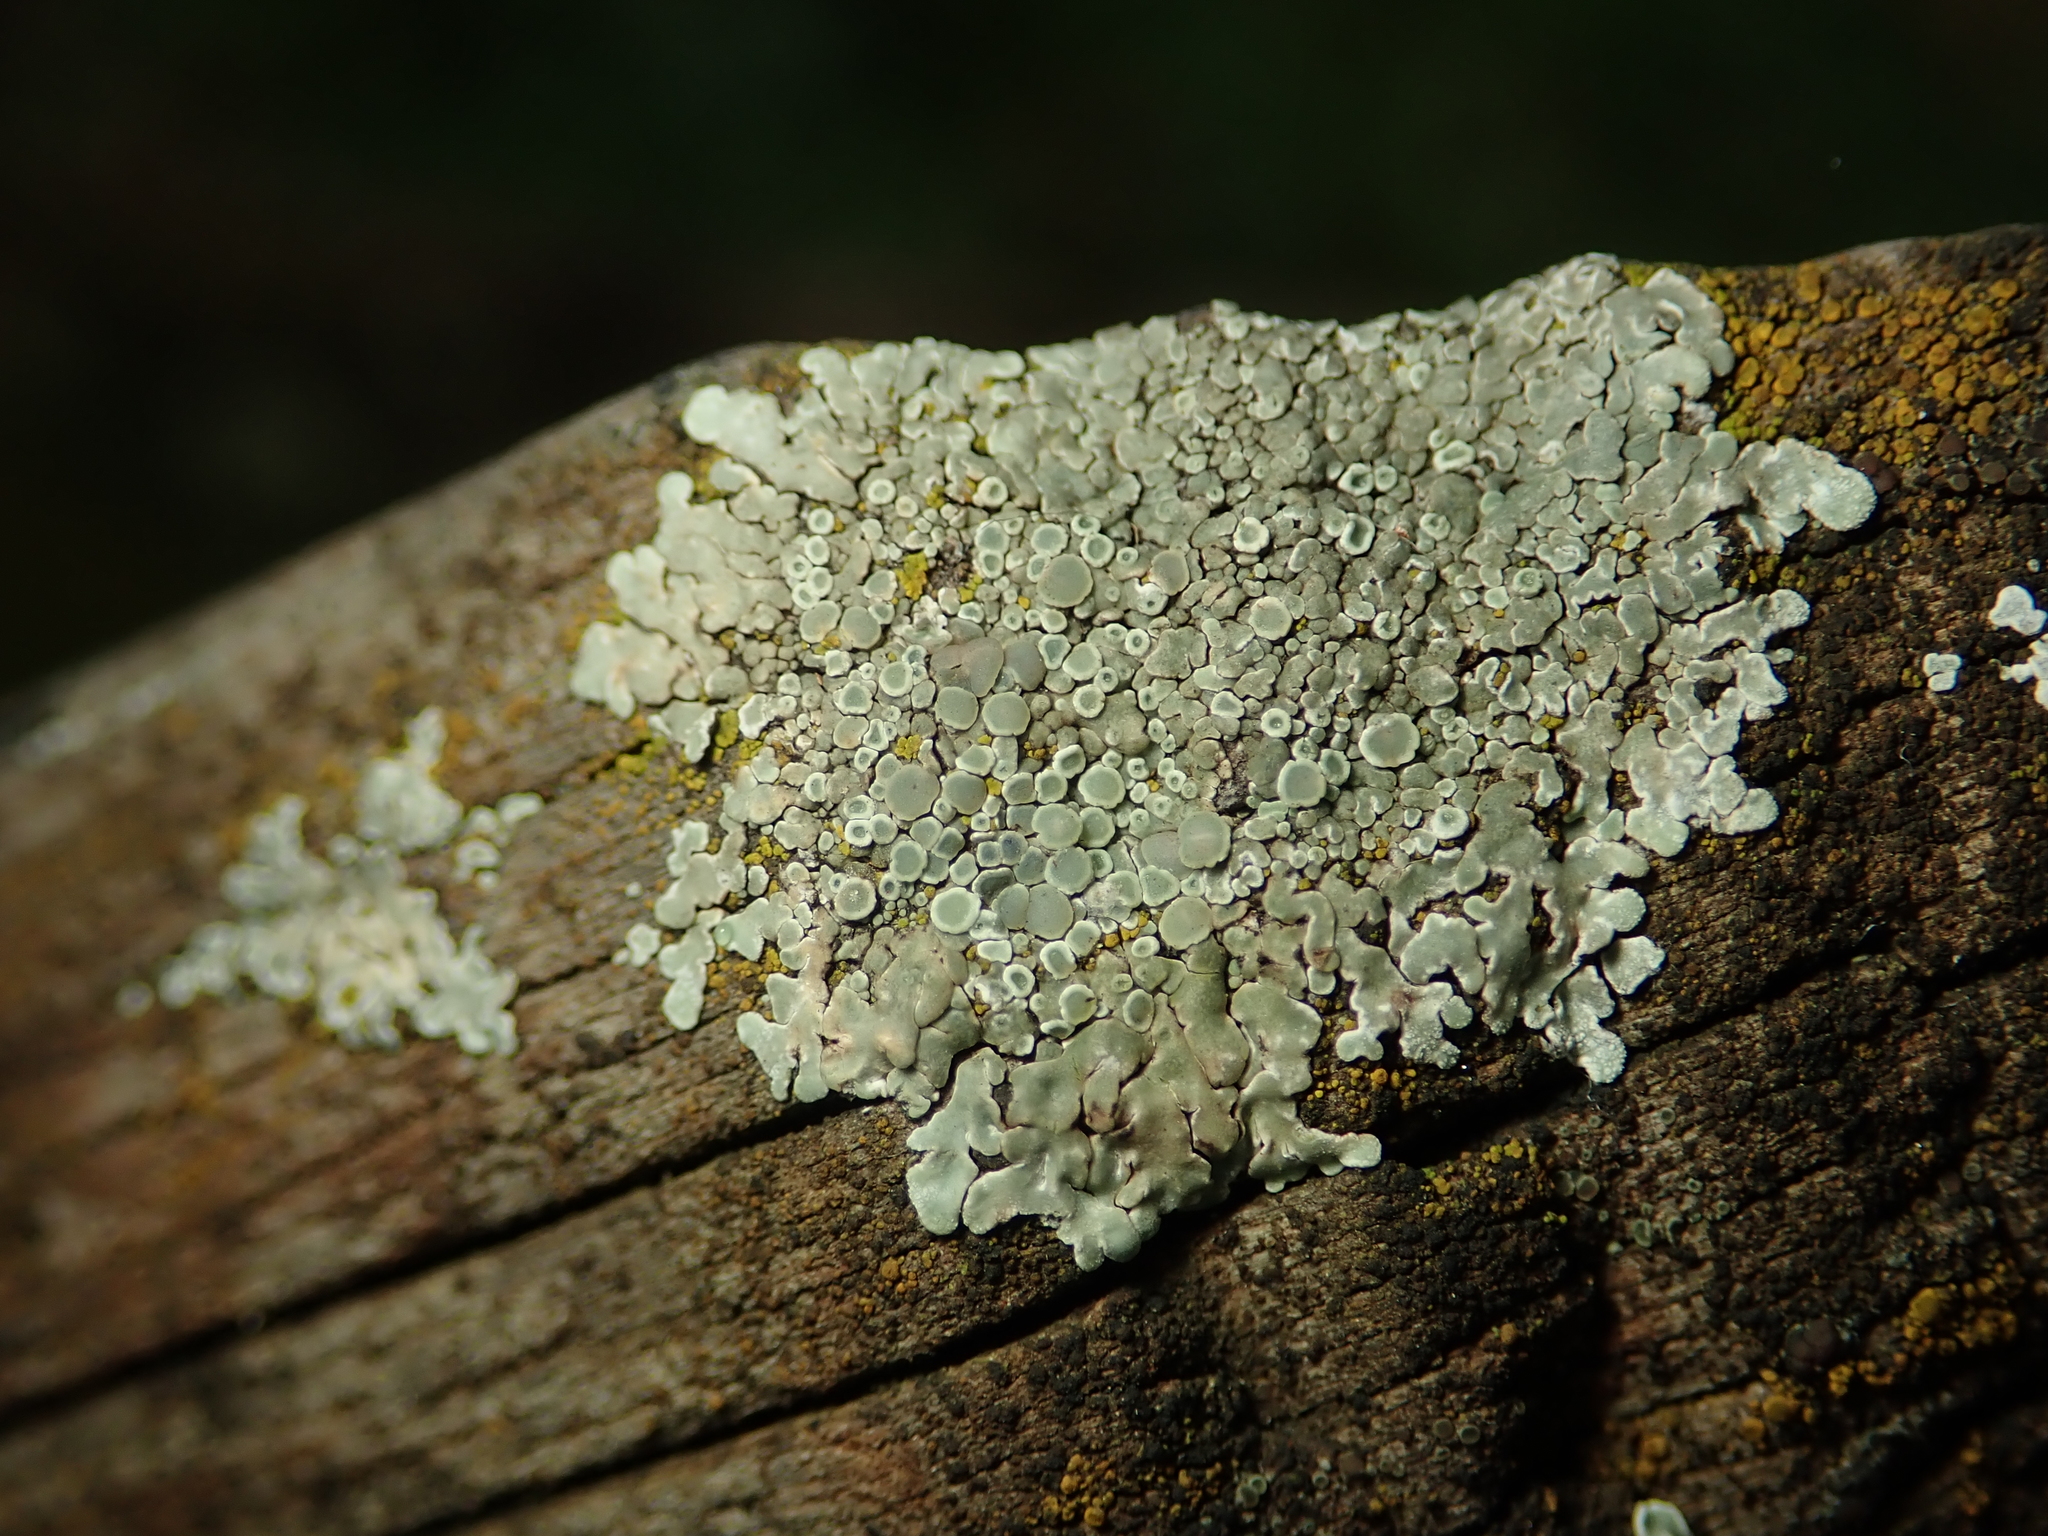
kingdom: Fungi
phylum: Ascomycota
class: Lecanoromycetes
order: Lecanorales
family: Lecanoraceae
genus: Protoparmeliopsis
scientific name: Protoparmeliopsis muralis
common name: Stonewall rim lichen
